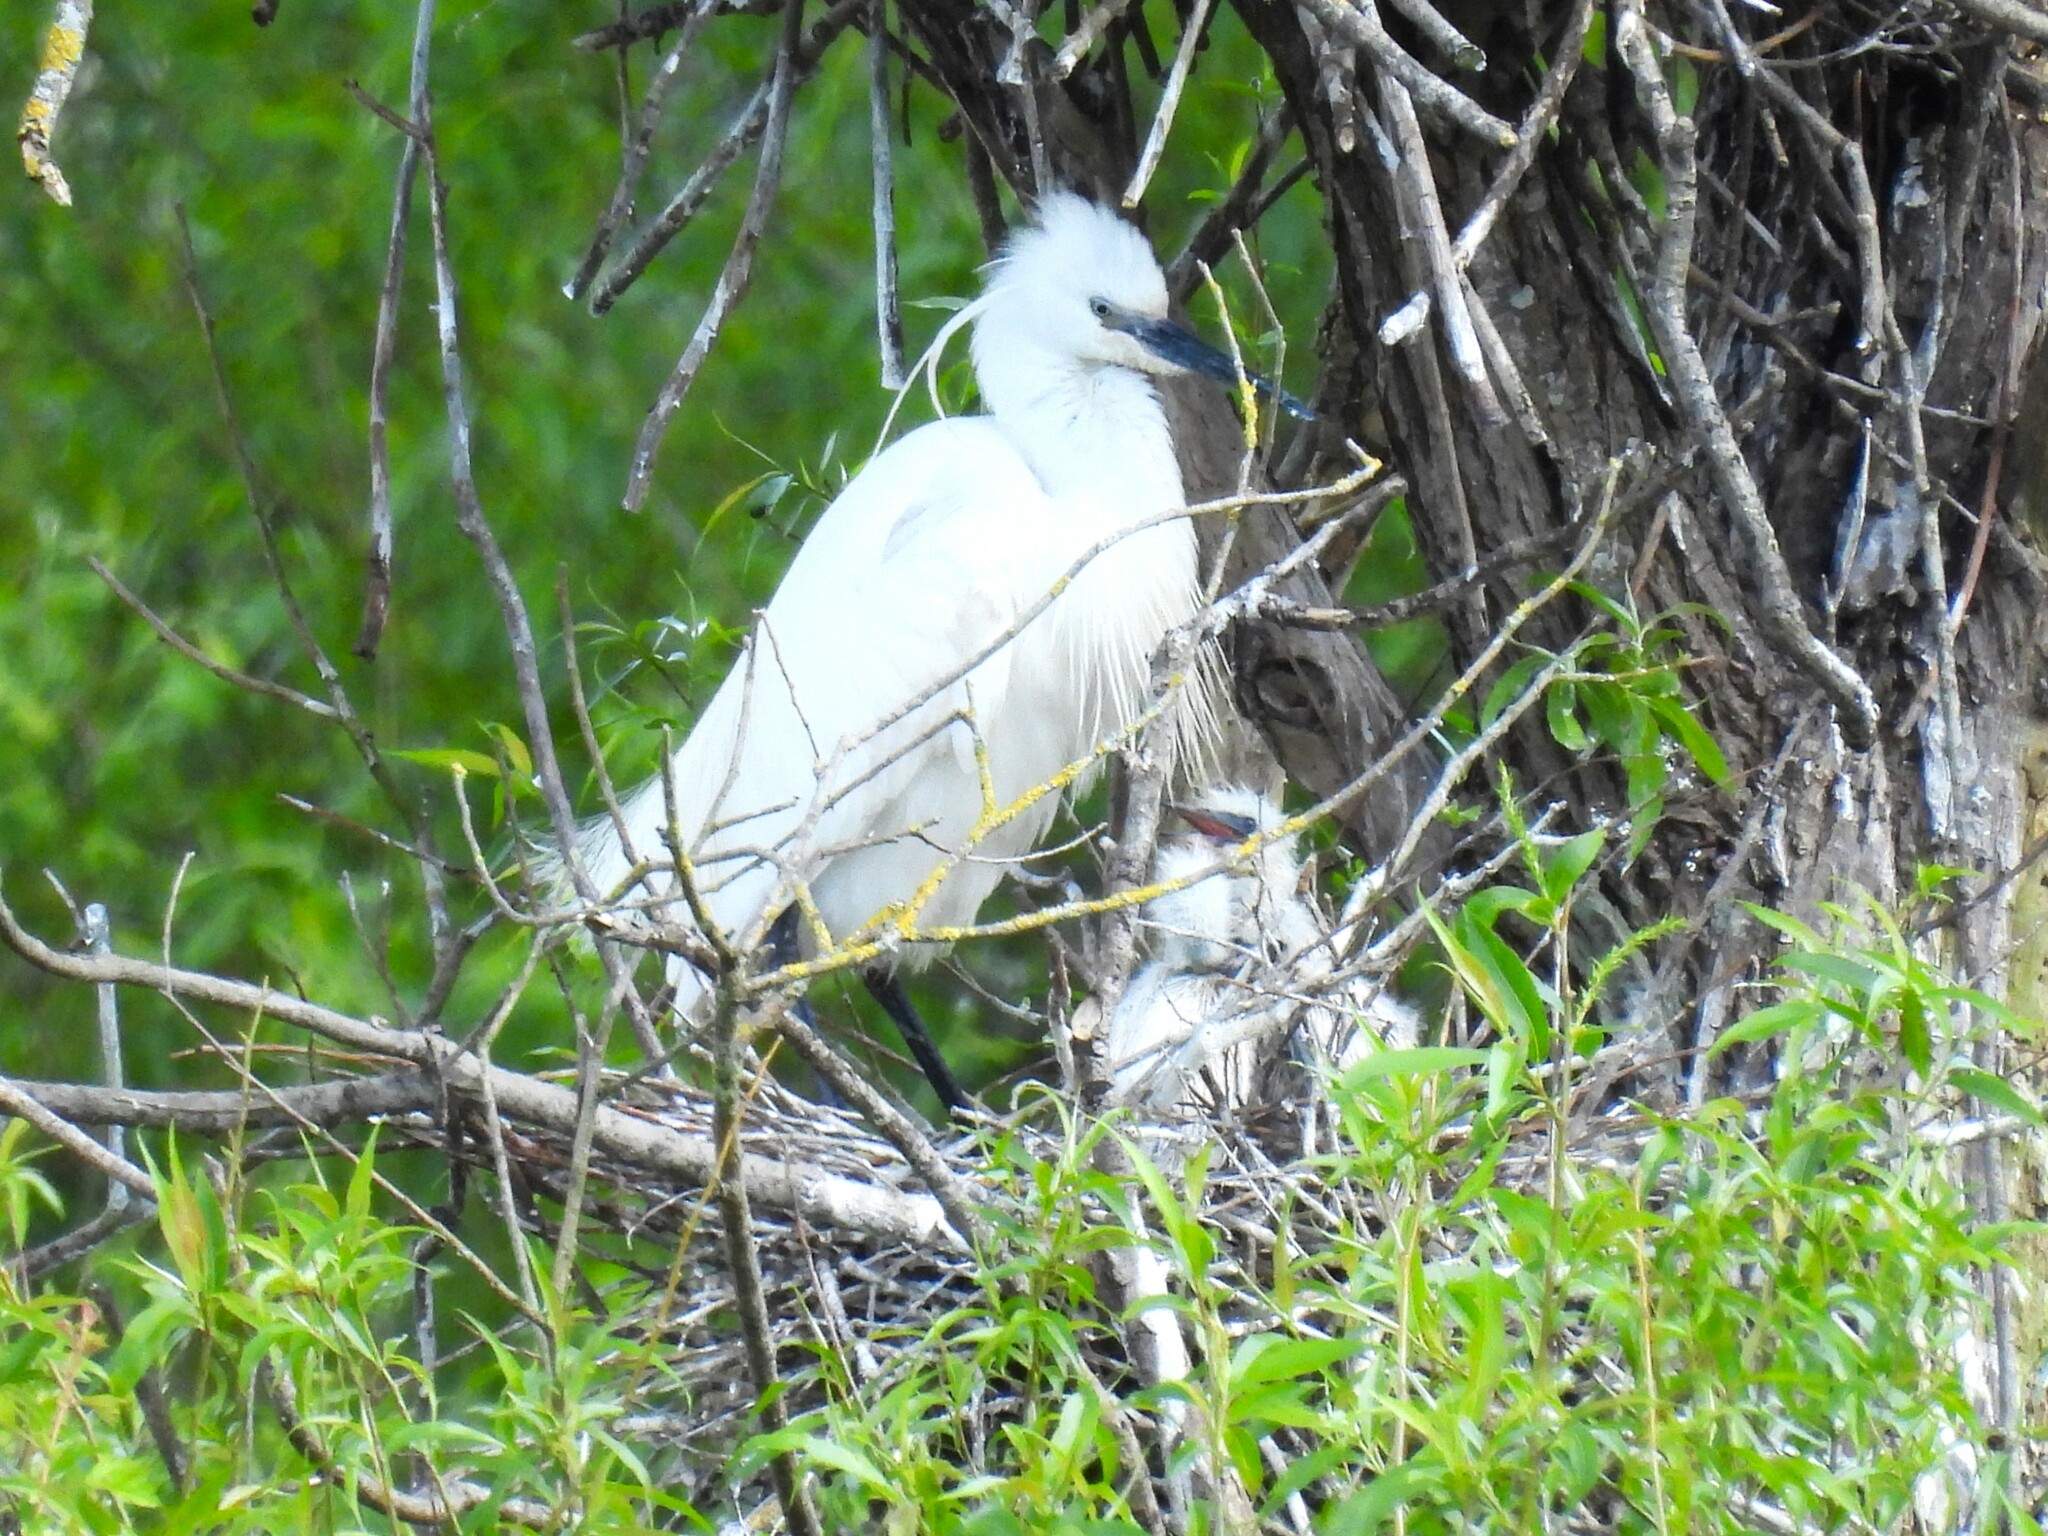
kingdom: Animalia
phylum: Chordata
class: Aves
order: Pelecaniformes
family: Ardeidae
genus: Egretta
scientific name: Egretta garzetta
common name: Little egret
